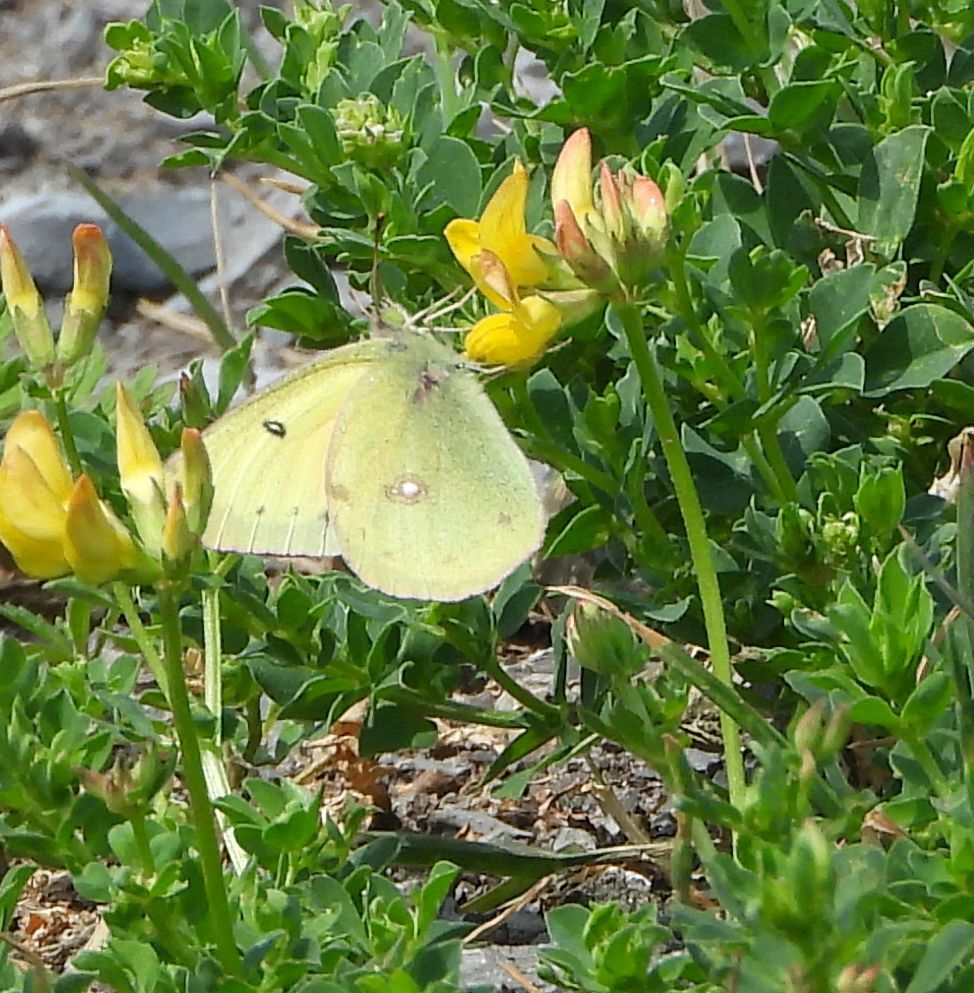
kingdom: Animalia
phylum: Arthropoda
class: Insecta
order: Lepidoptera
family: Pieridae
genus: Colias
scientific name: Colias philodice
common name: Clouded sulphur
